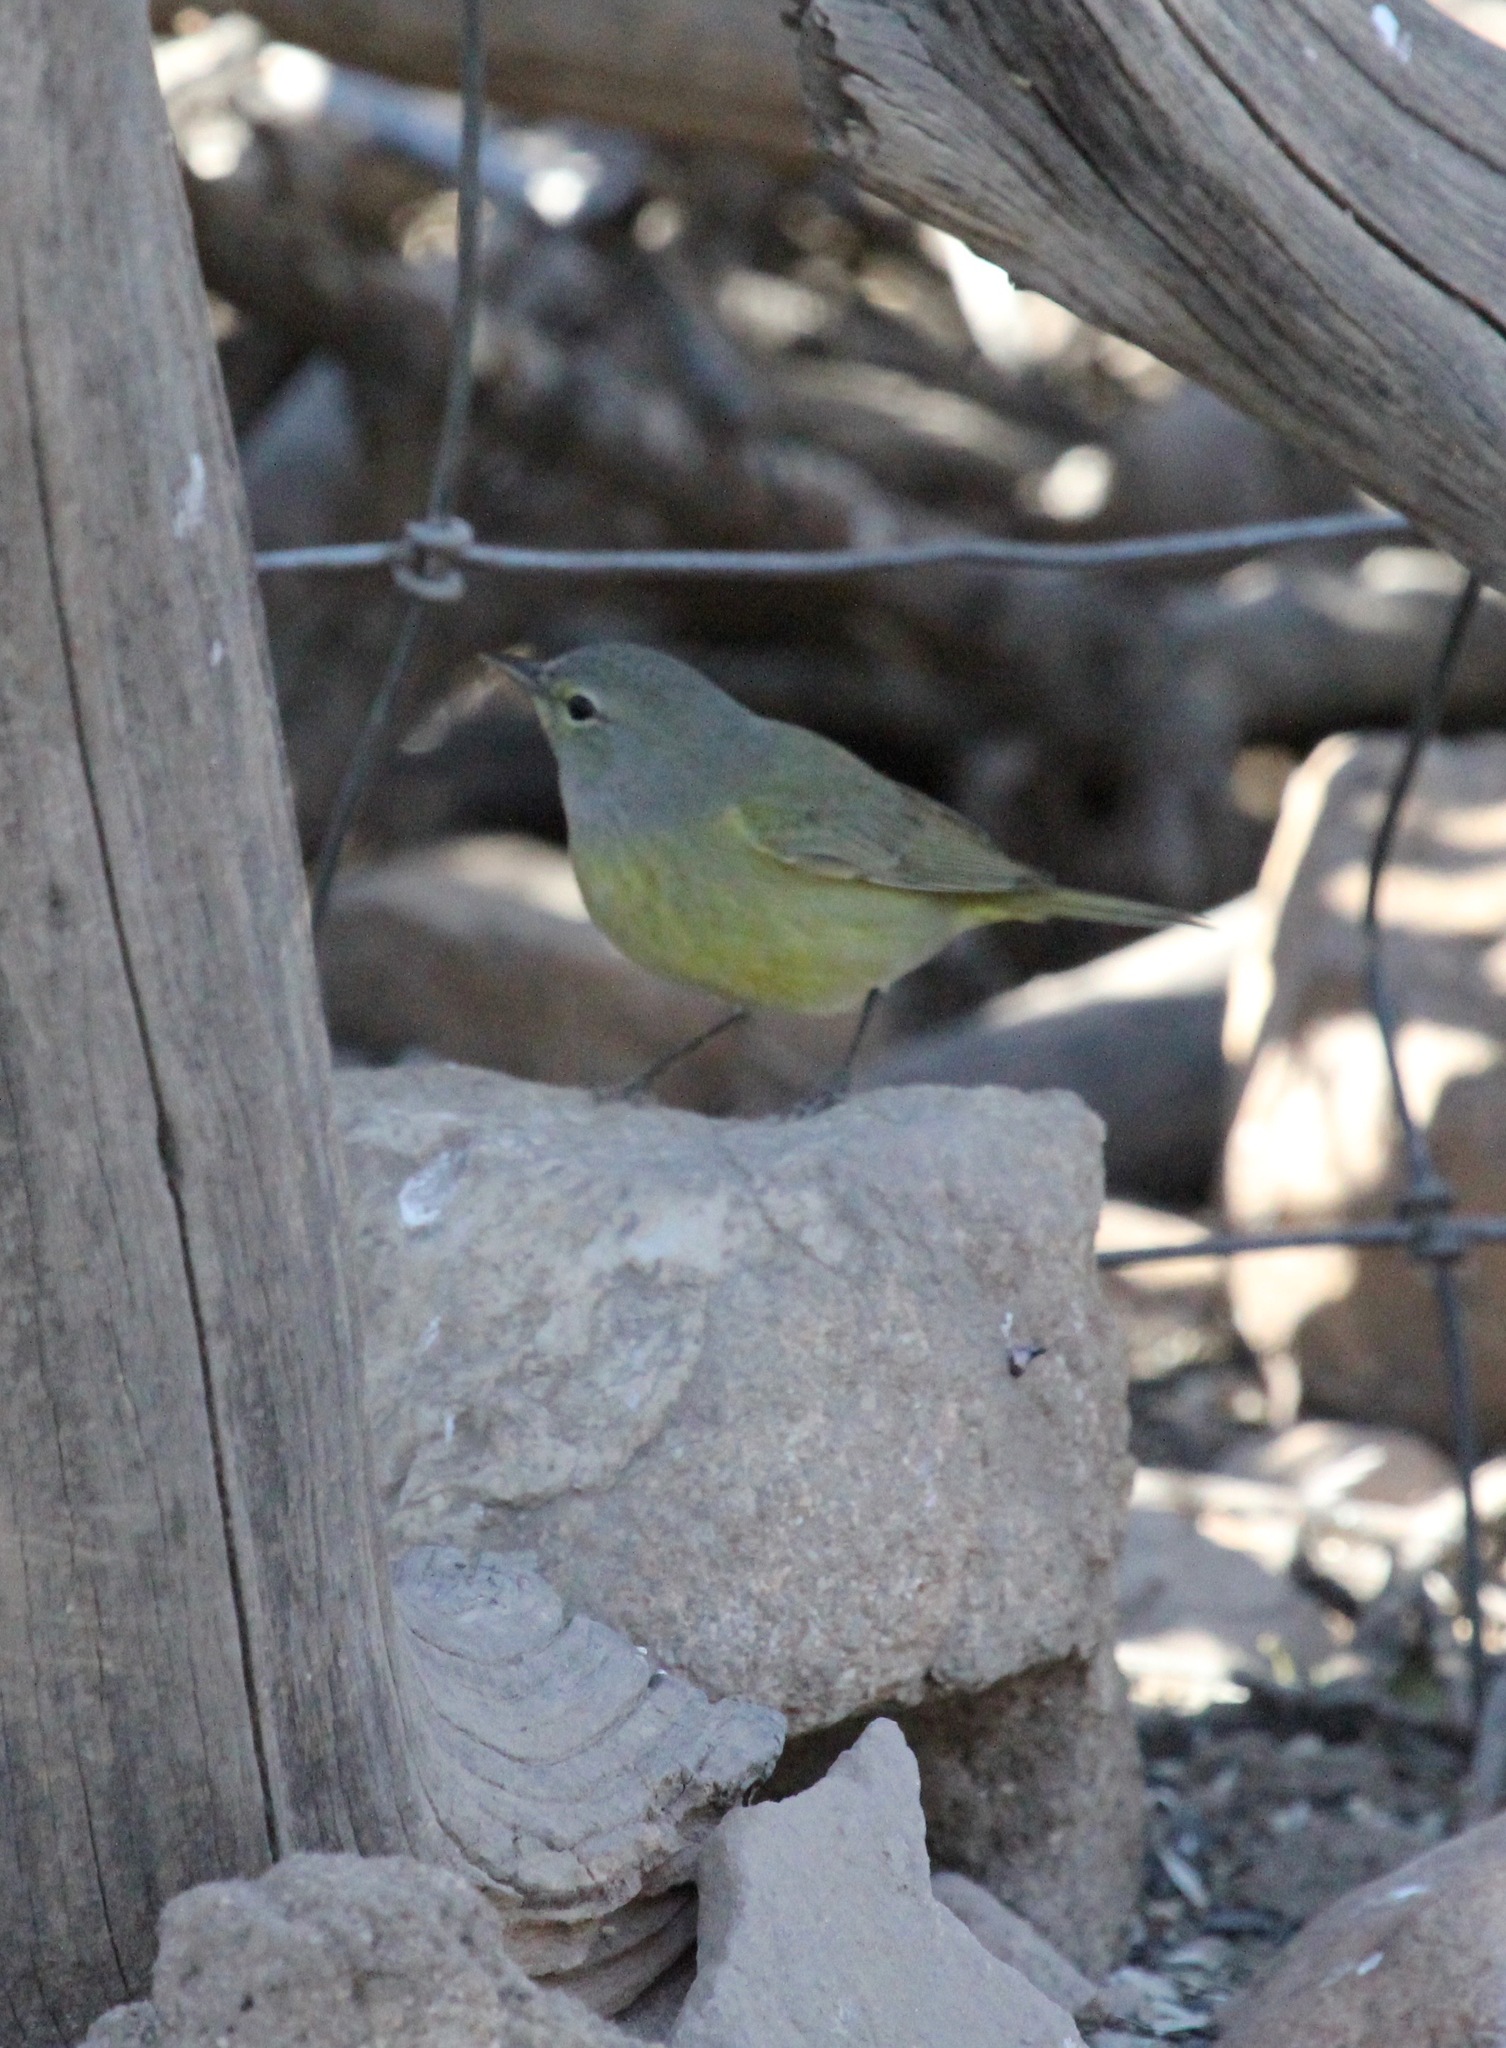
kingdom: Animalia
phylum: Chordata
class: Aves
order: Passeriformes
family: Parulidae
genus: Leiothlypis
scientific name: Leiothlypis celata
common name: Orange-crowned warbler
